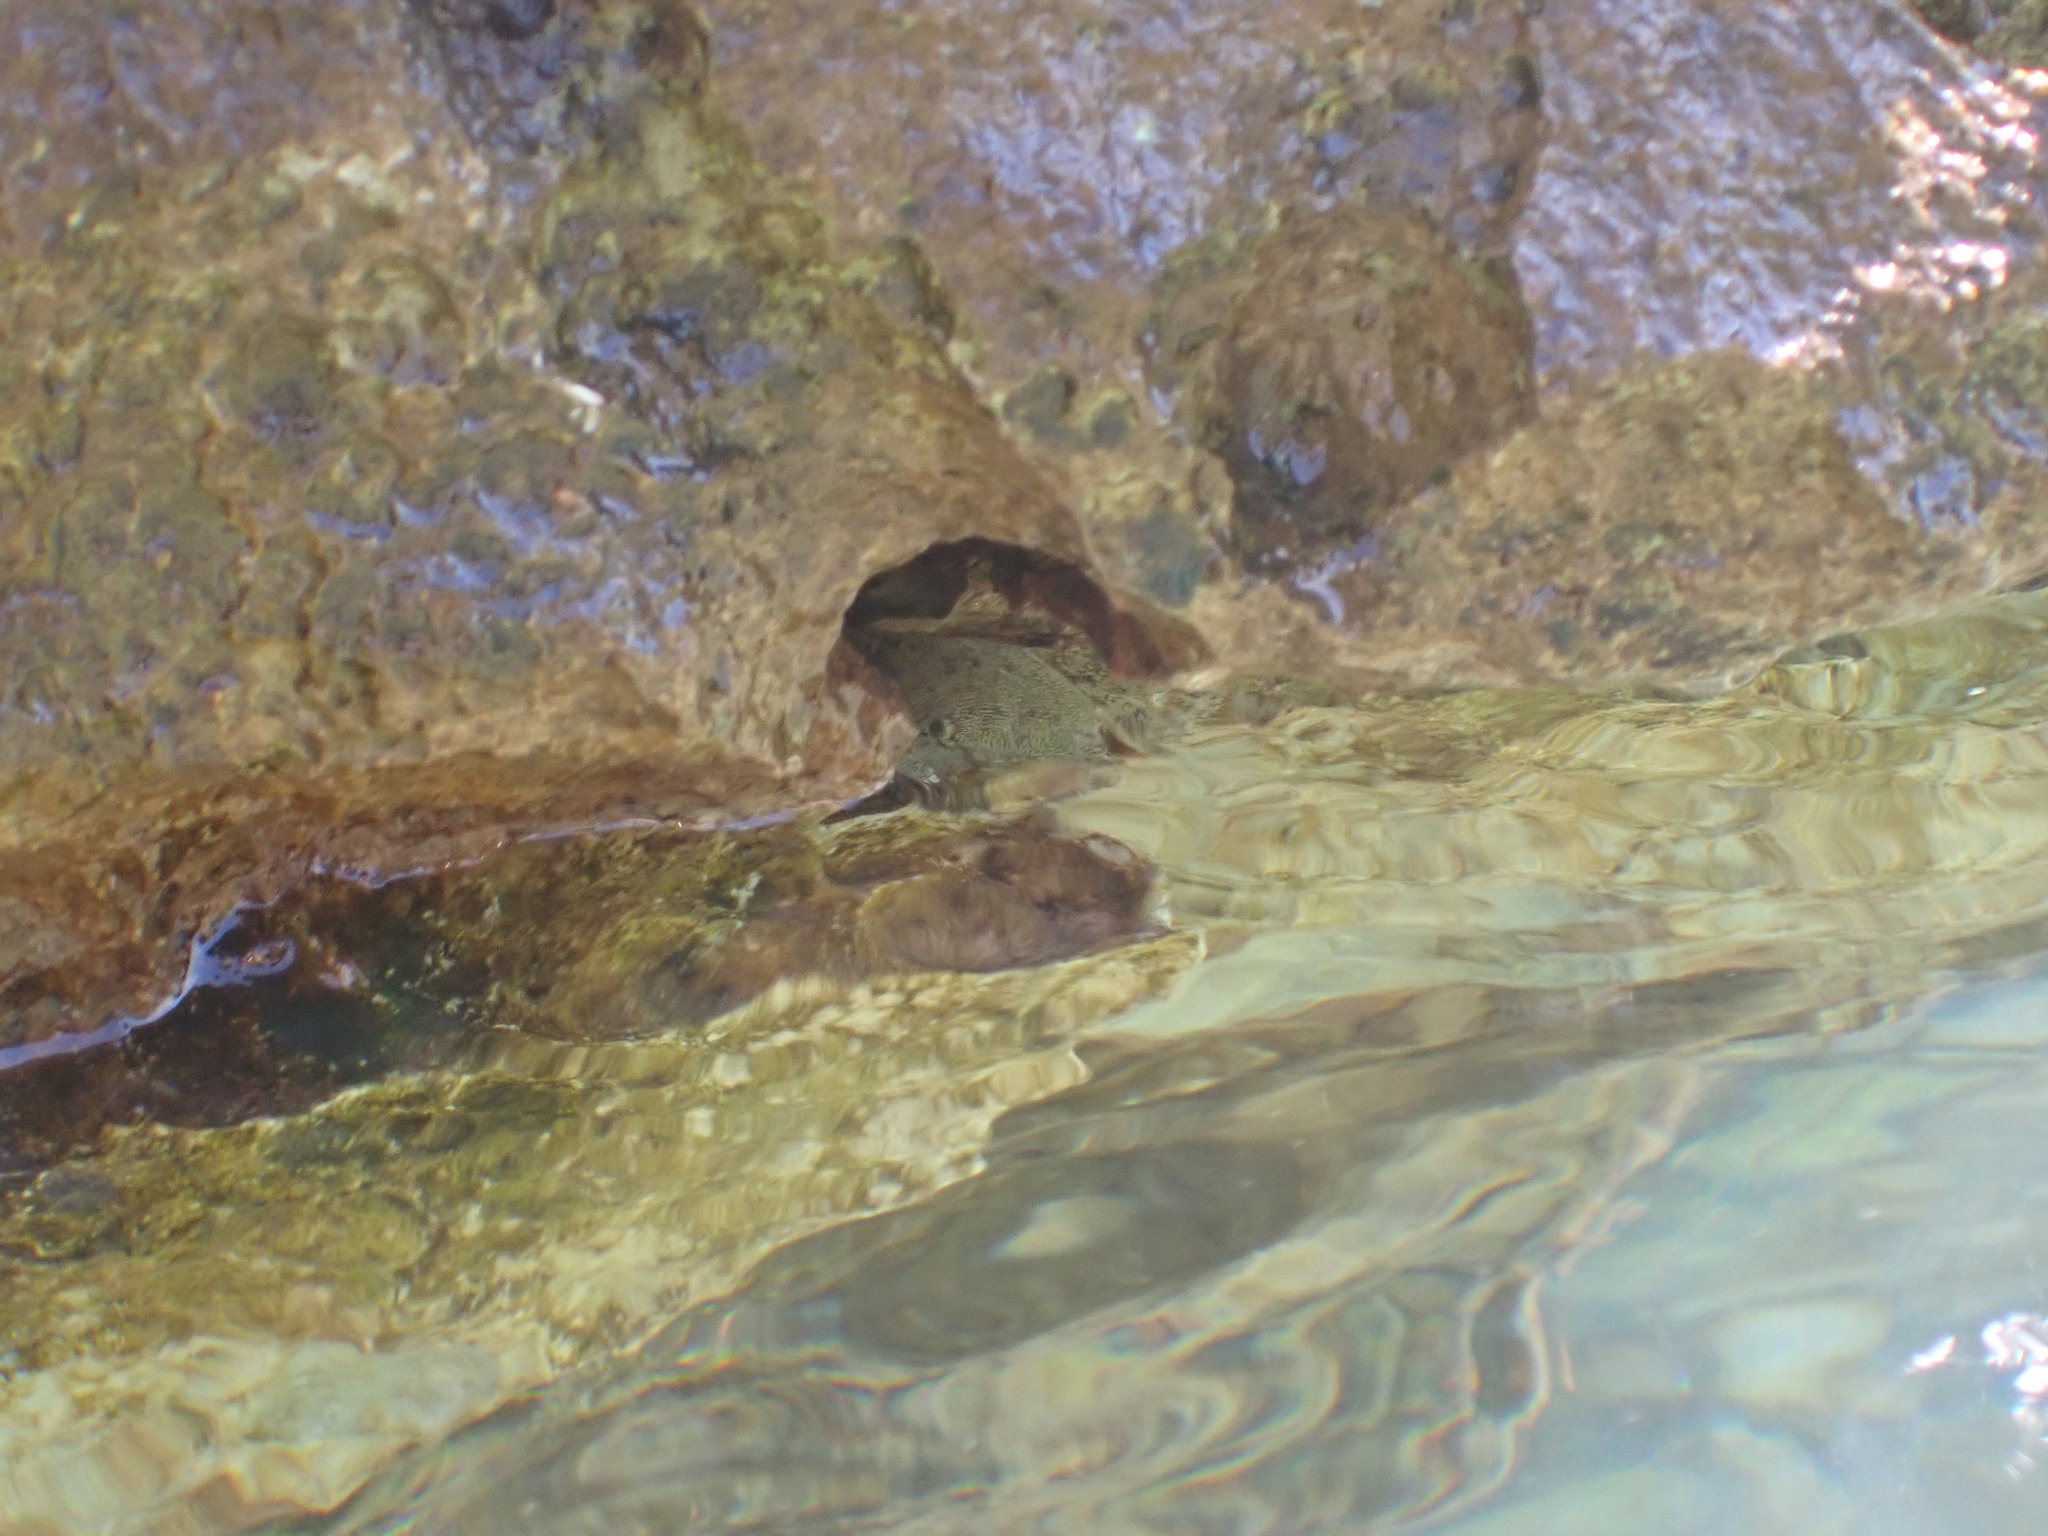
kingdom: Animalia
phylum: Arthropoda
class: Malacostraca
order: Decapoda
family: Grapsidae
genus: Pachygrapsus
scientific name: Pachygrapsus marmoratus
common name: Marbled rock crab
